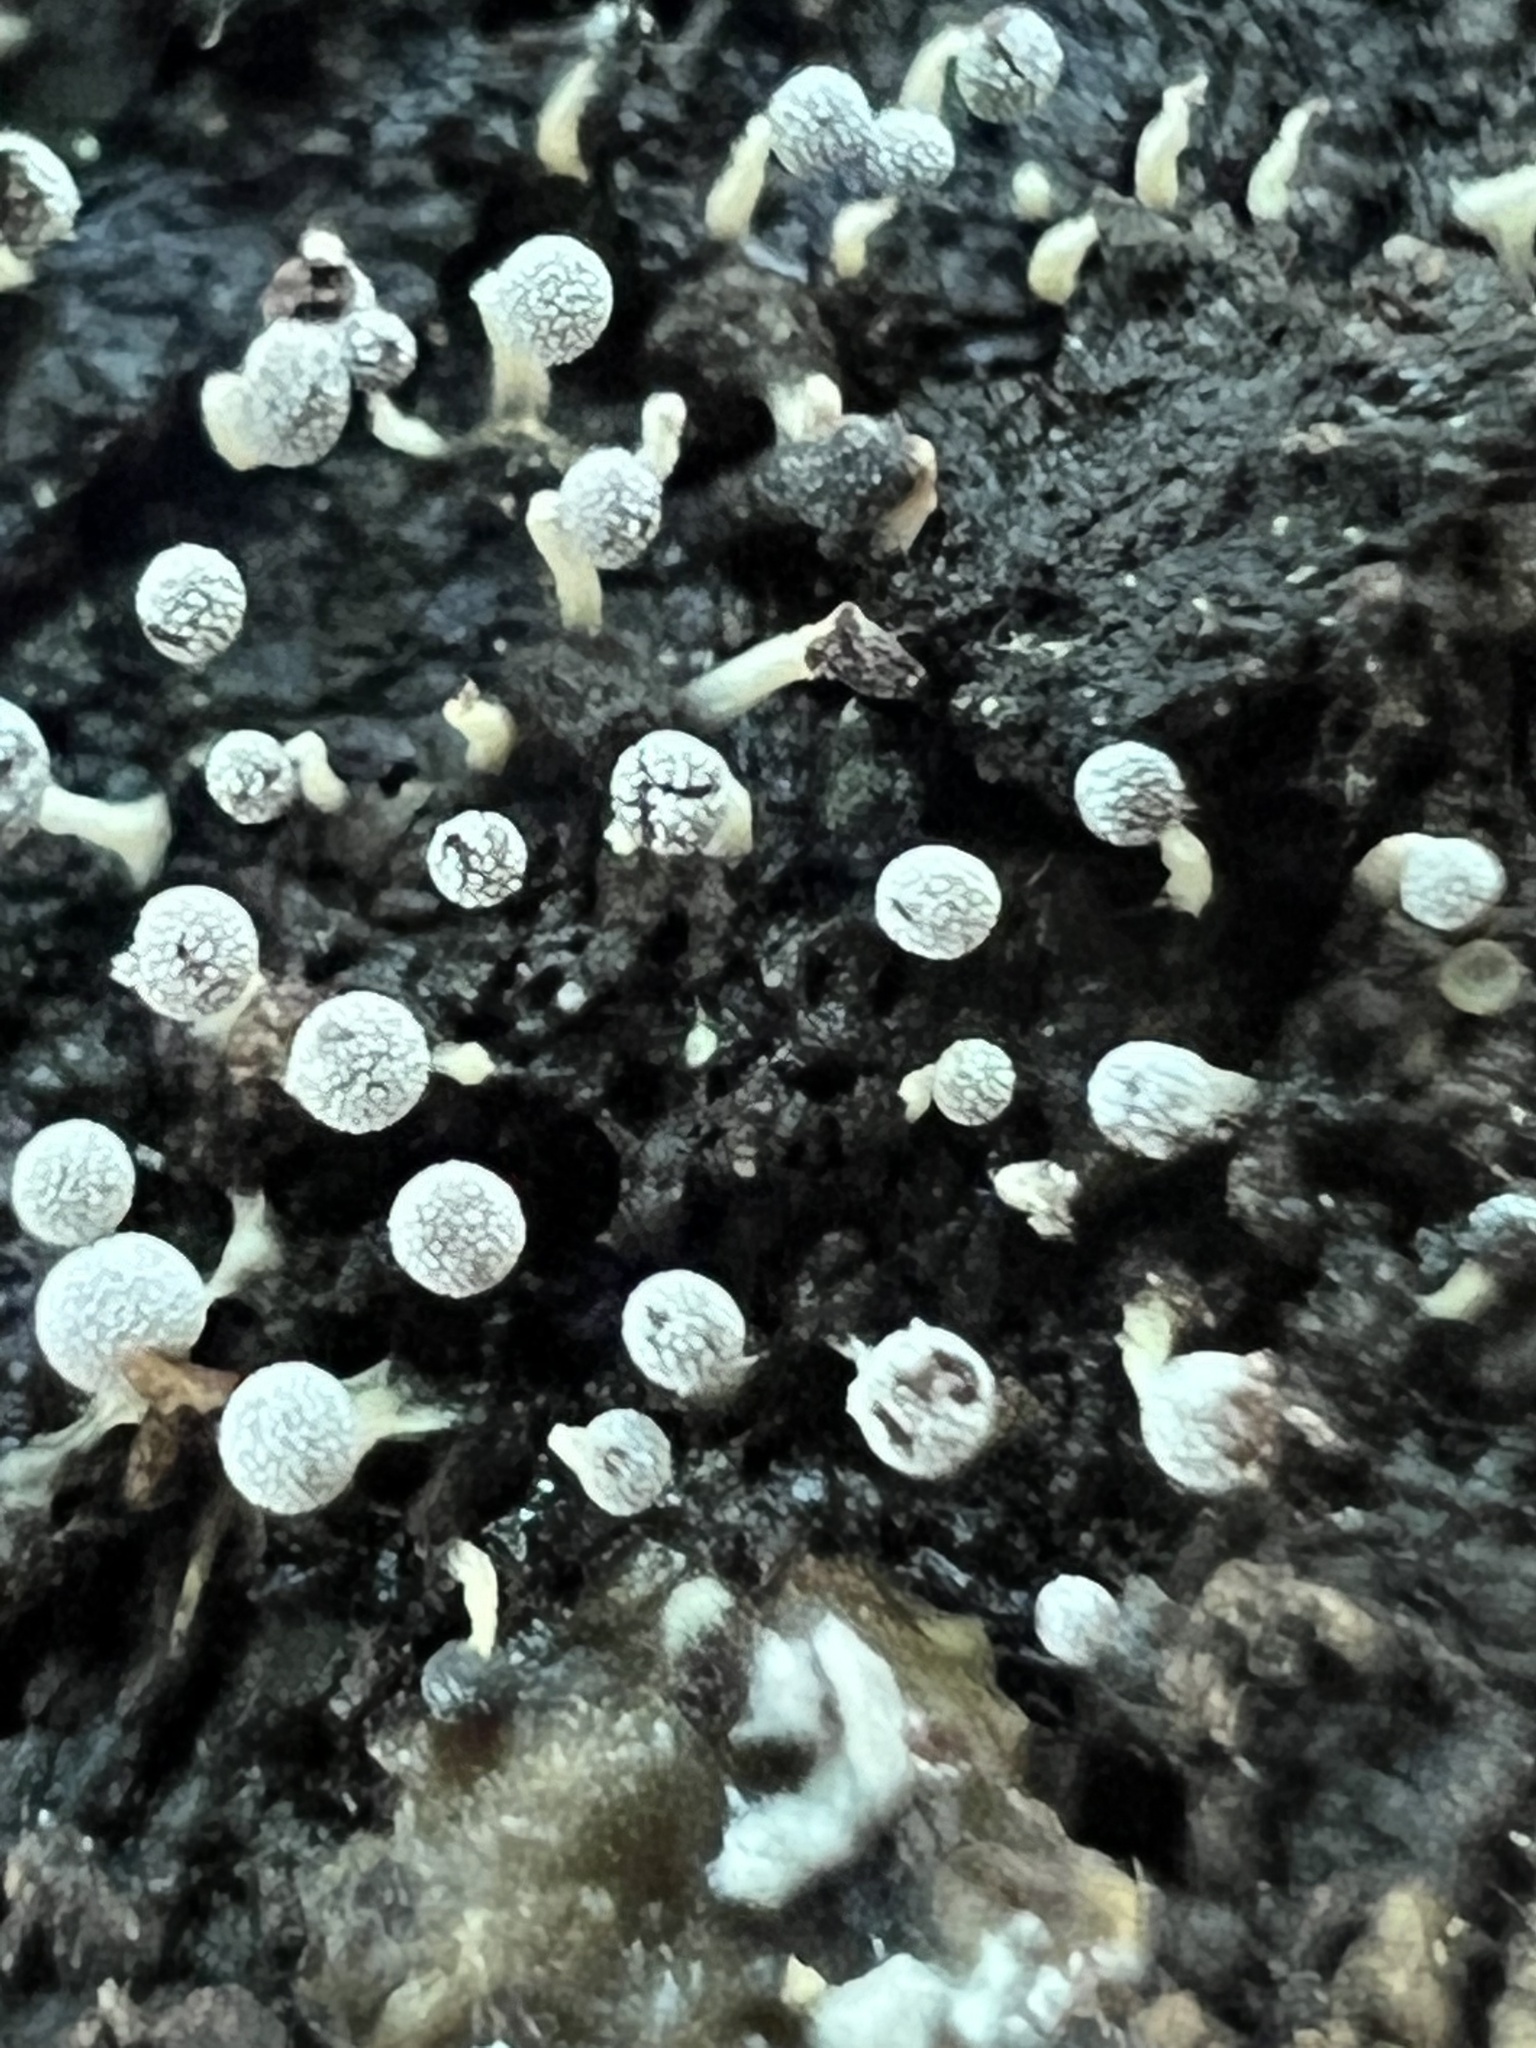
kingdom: Fungi
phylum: Basidiomycota
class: Atractiellomycetes
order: Atractiellales
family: Phleogenaceae
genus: Phleogena
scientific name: Phleogena faginea
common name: Fenugreek stalkball
